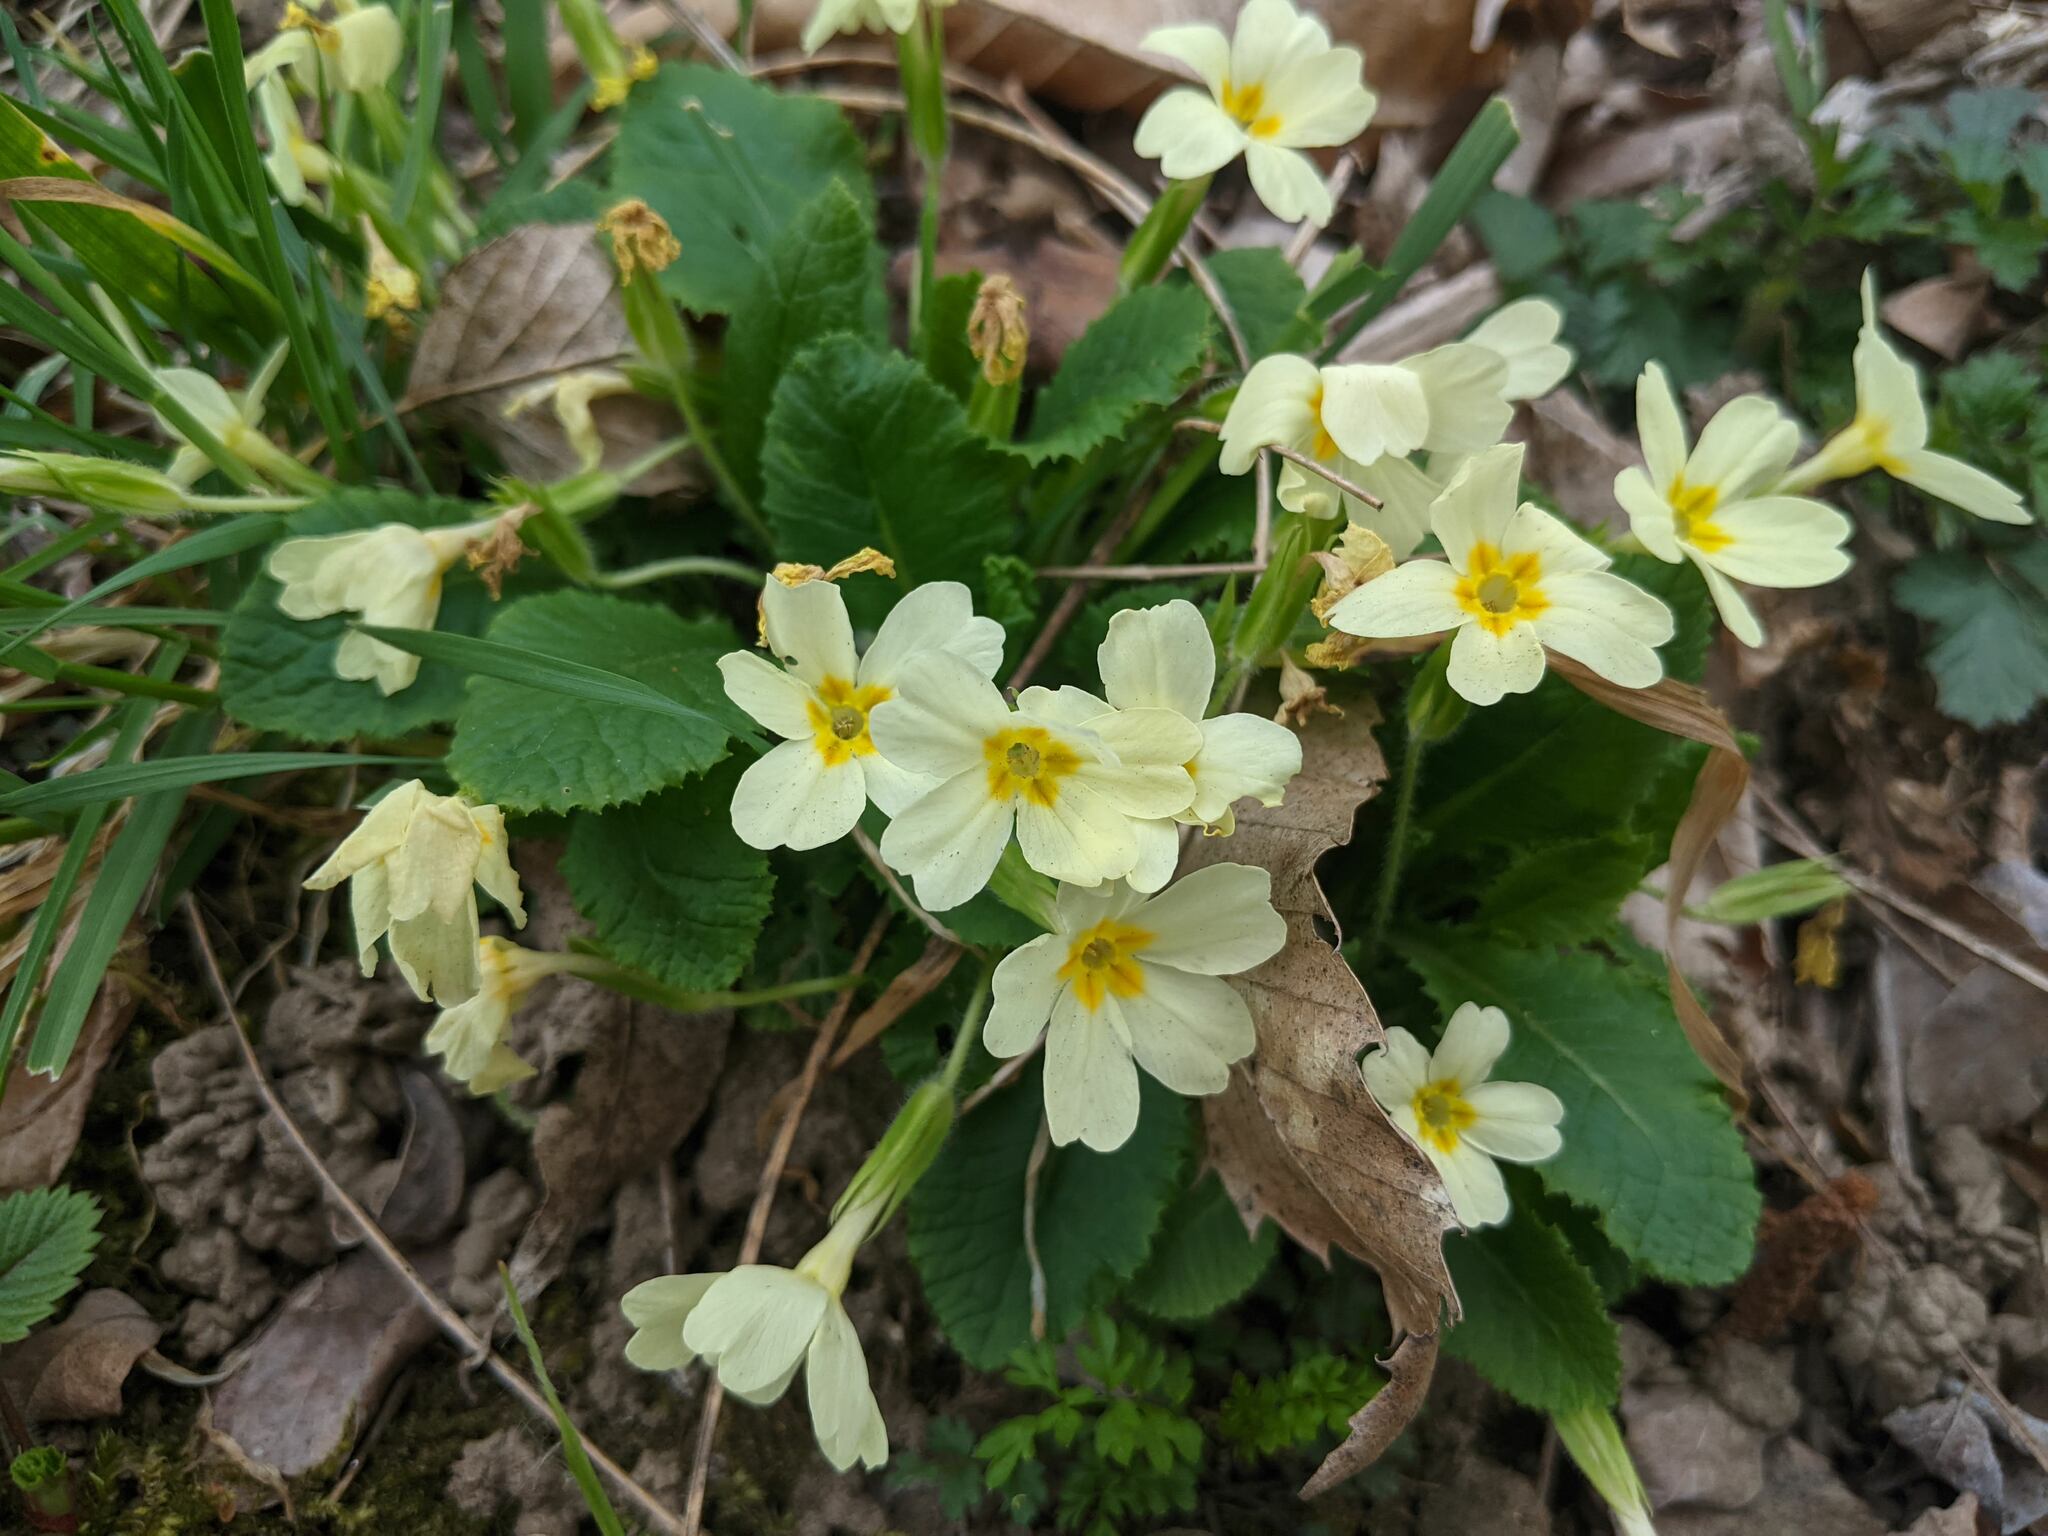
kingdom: Plantae
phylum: Tracheophyta
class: Magnoliopsida
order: Ericales
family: Primulaceae
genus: Primula
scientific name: Primula vulgaris
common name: Primrose
